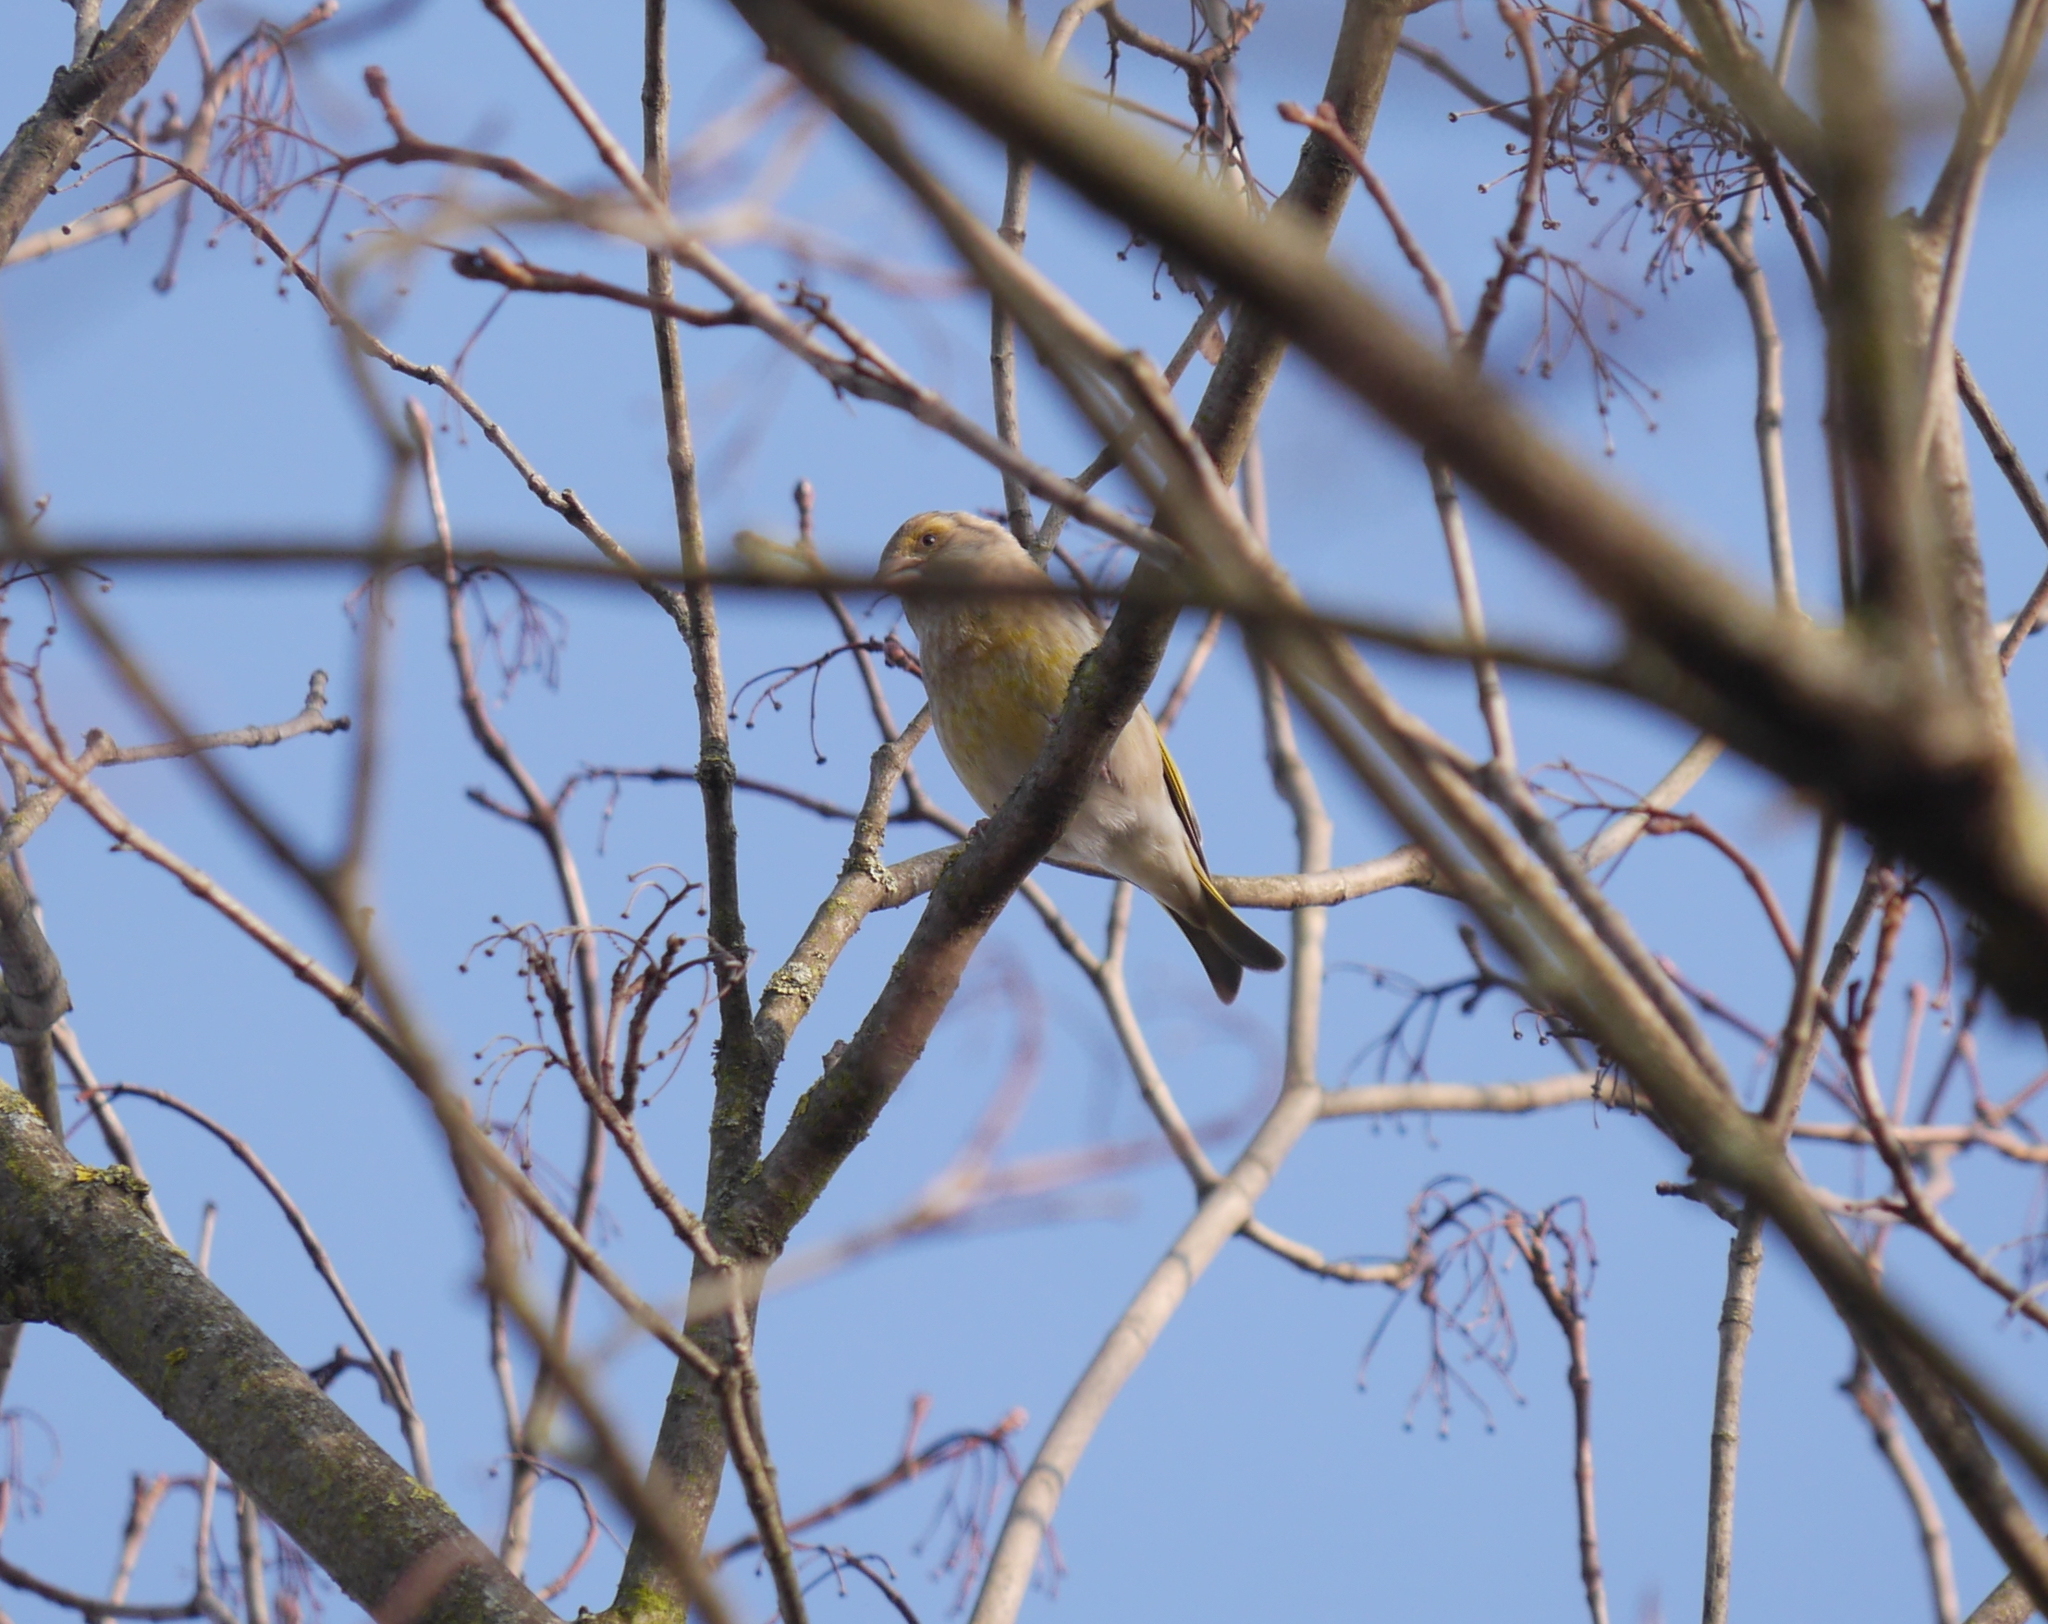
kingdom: Plantae
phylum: Tracheophyta
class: Liliopsida
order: Poales
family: Poaceae
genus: Chloris
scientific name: Chloris chloris
